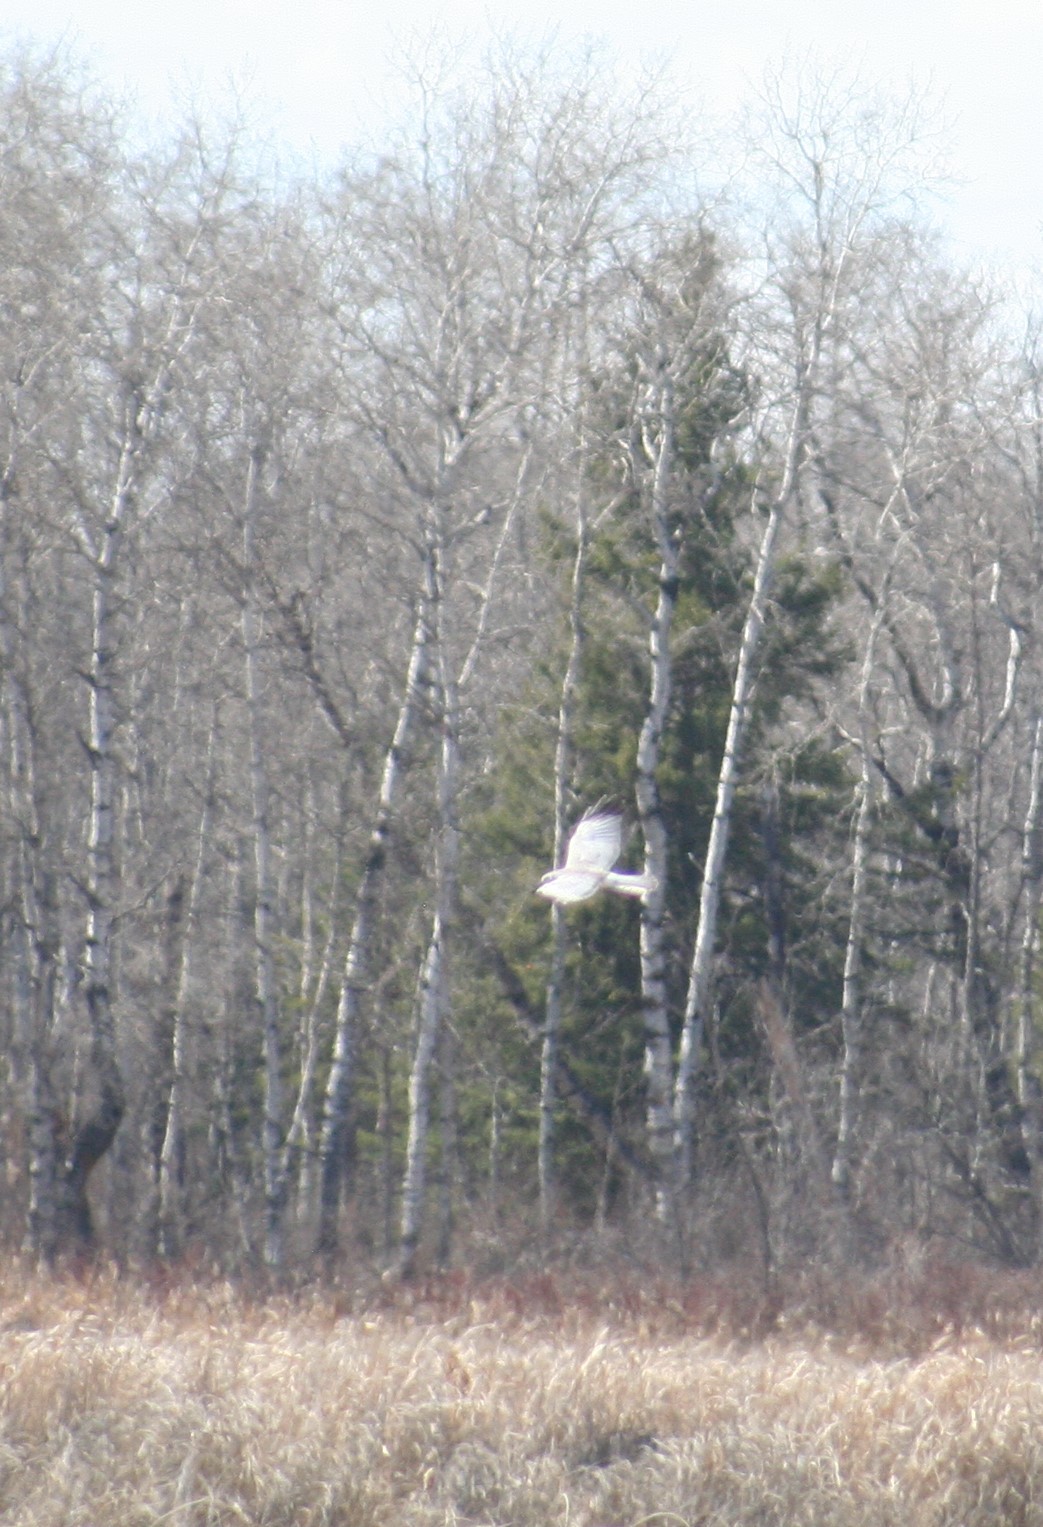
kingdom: Animalia
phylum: Chordata
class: Aves
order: Accipitriformes
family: Accipitridae
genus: Circus
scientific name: Circus cyaneus
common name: Hen harrier
